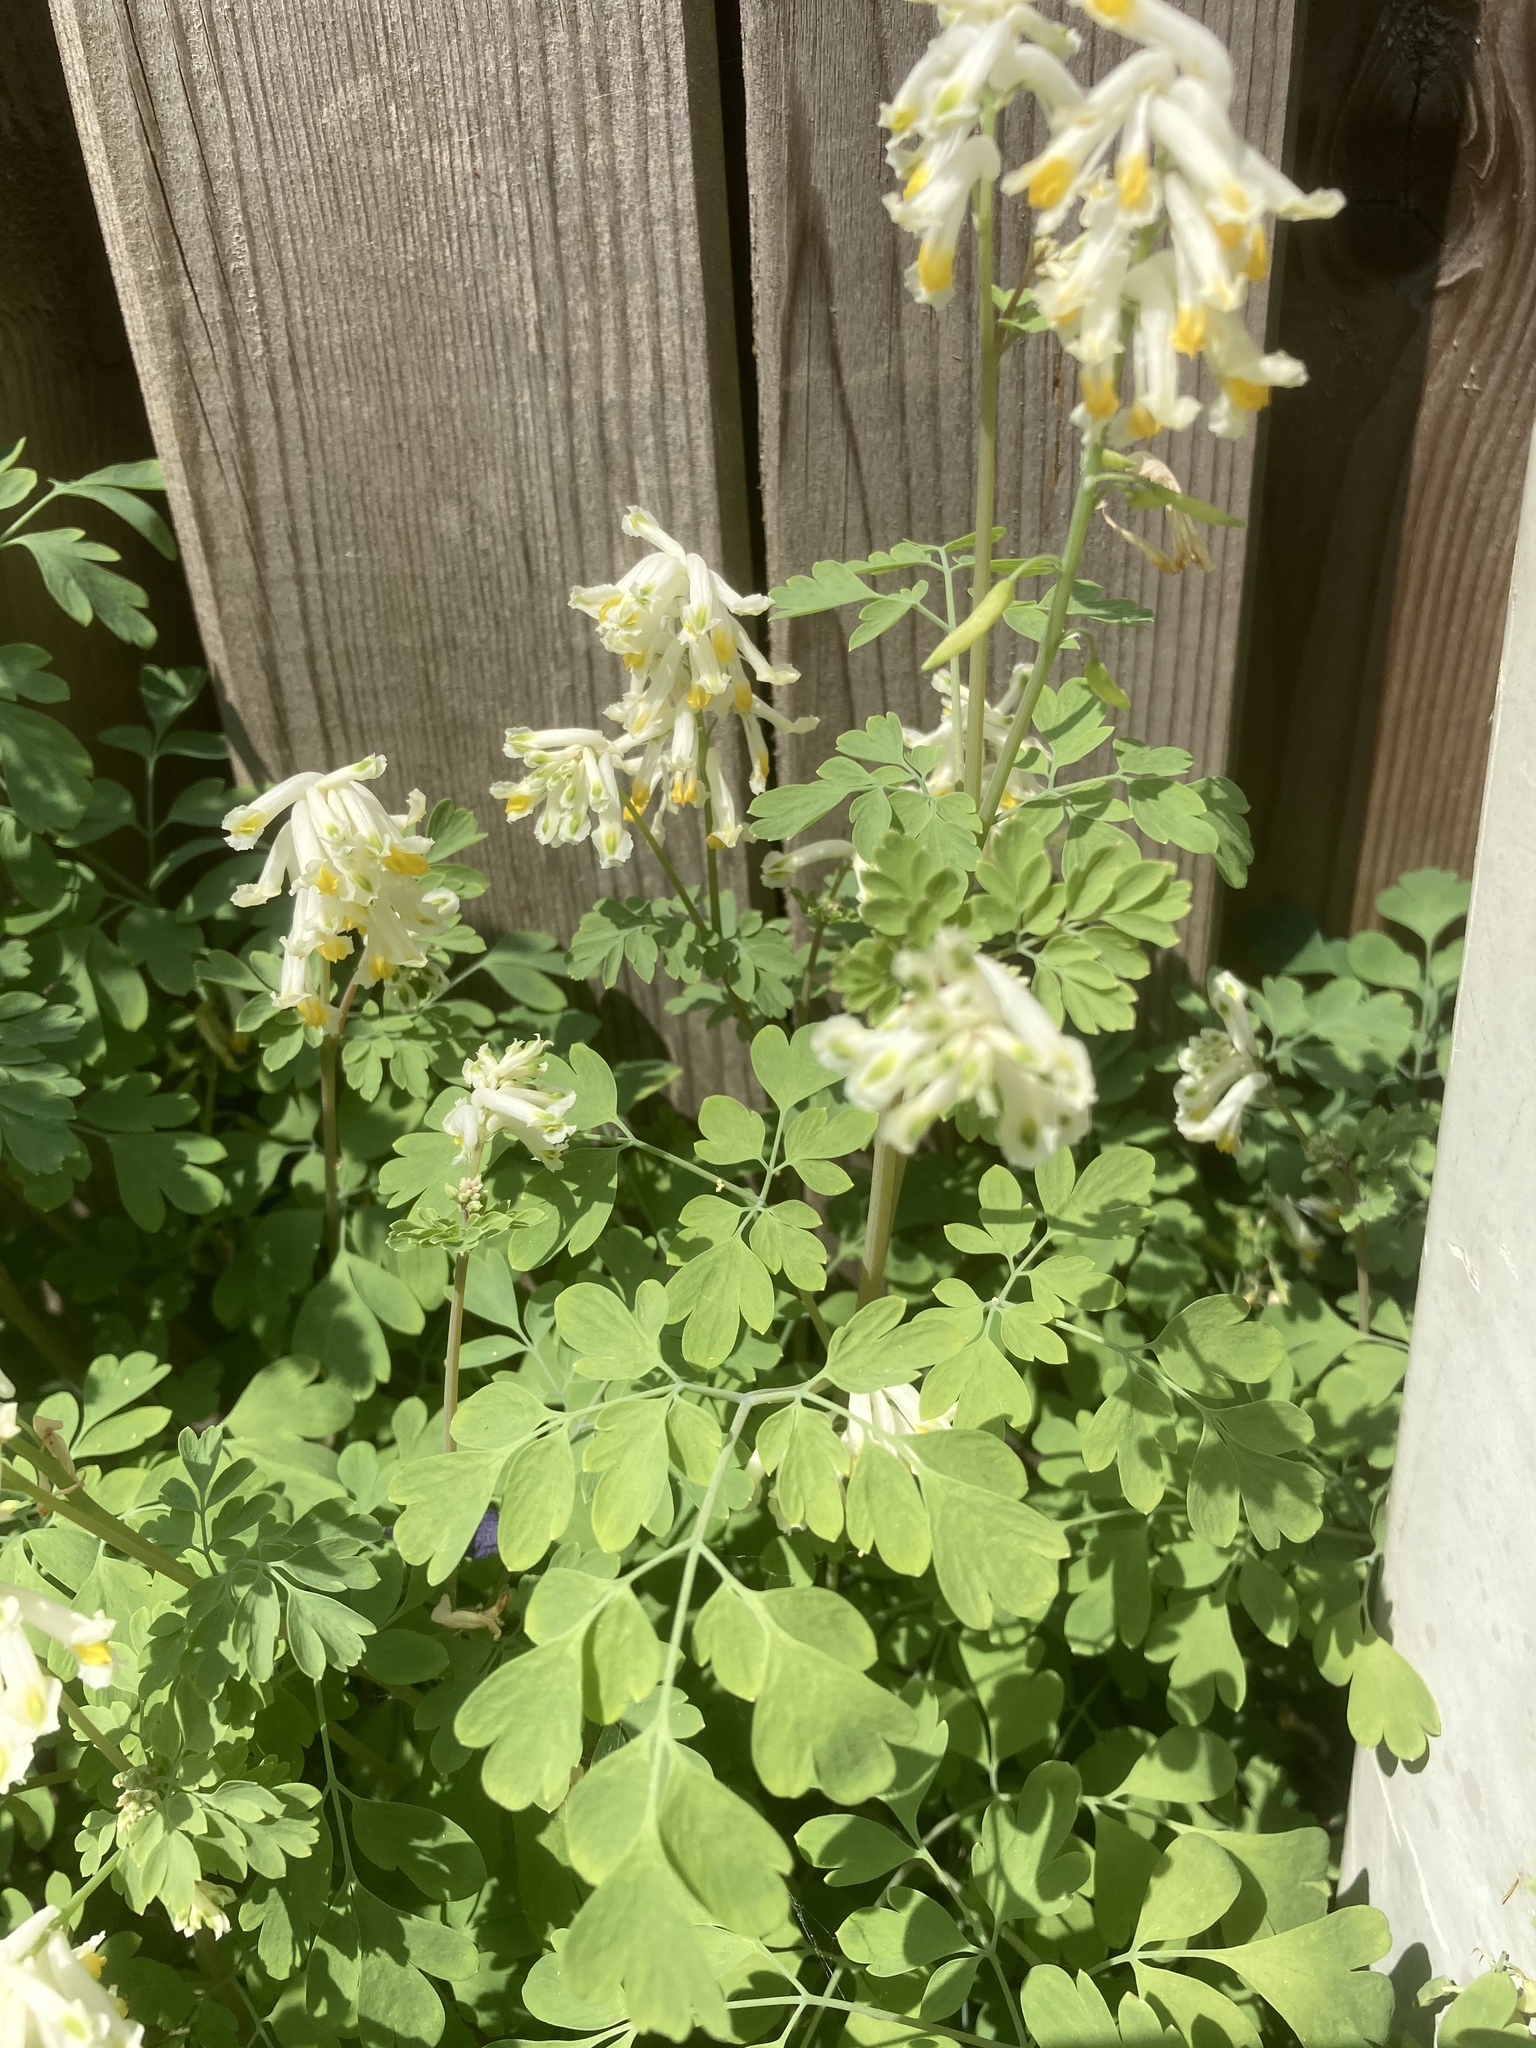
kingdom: Plantae
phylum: Tracheophyta
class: Magnoliopsida
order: Ranunculales
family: Papaveraceae
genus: Pseudofumaria
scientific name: Pseudofumaria alba
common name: Pale corydalis
